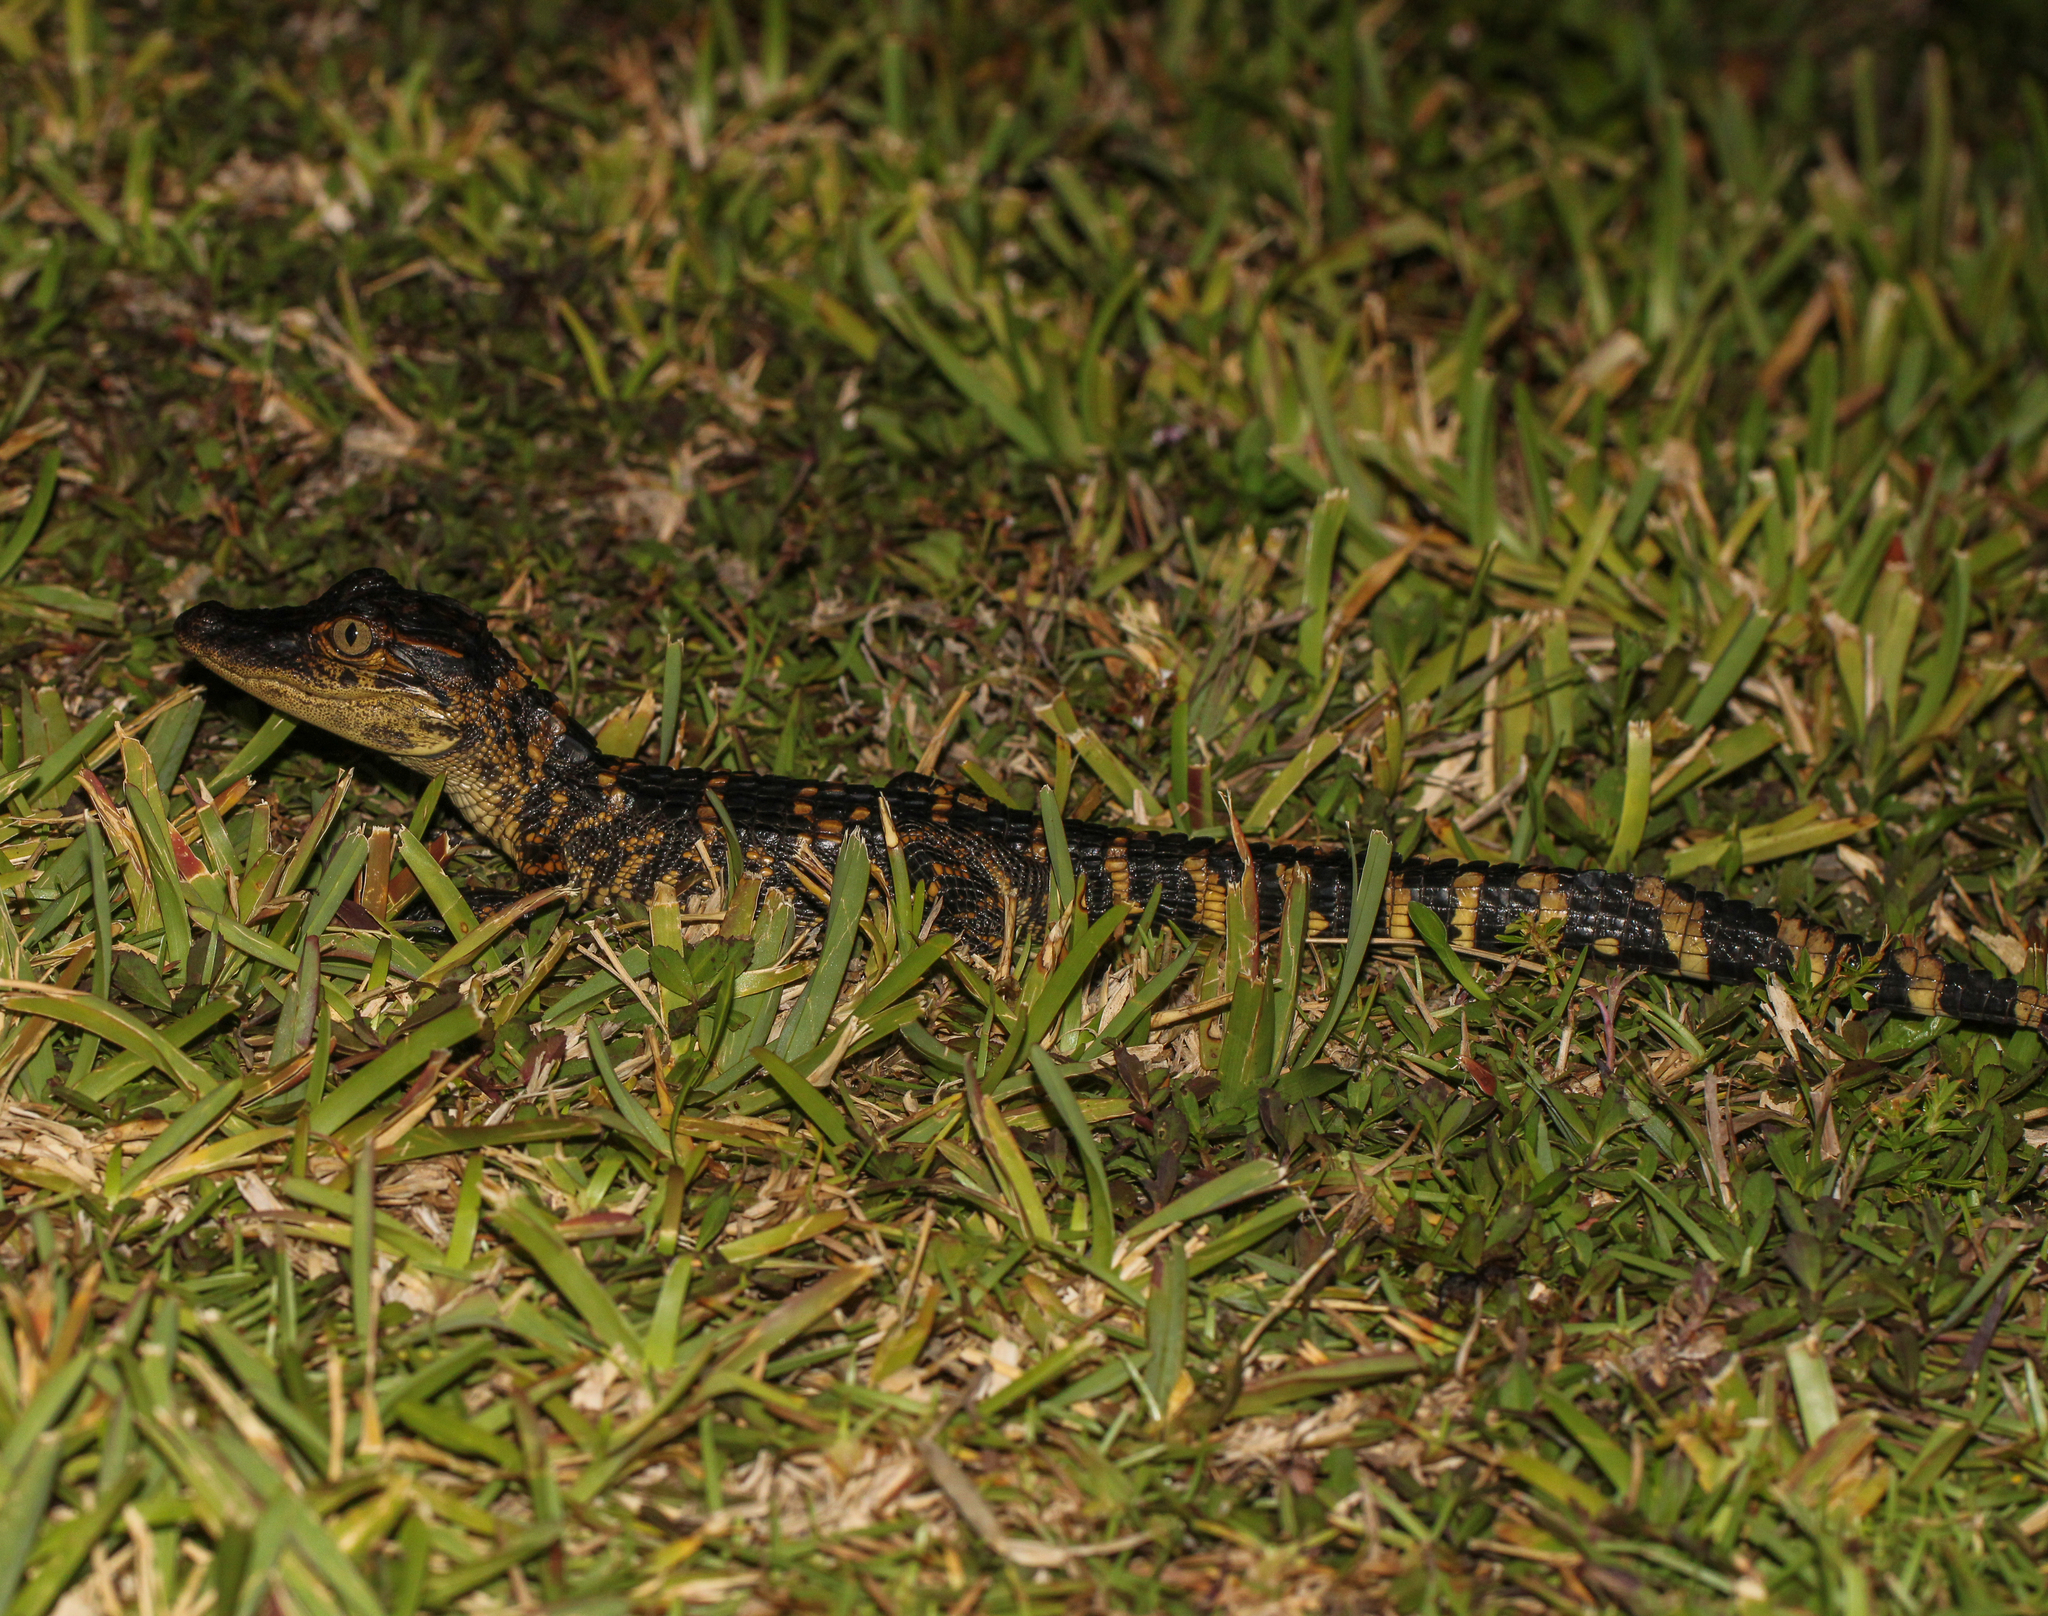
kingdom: Animalia
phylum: Chordata
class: Crocodylia
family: Alligatoridae
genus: Alligator
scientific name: Alligator mississippiensis
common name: American alligator
